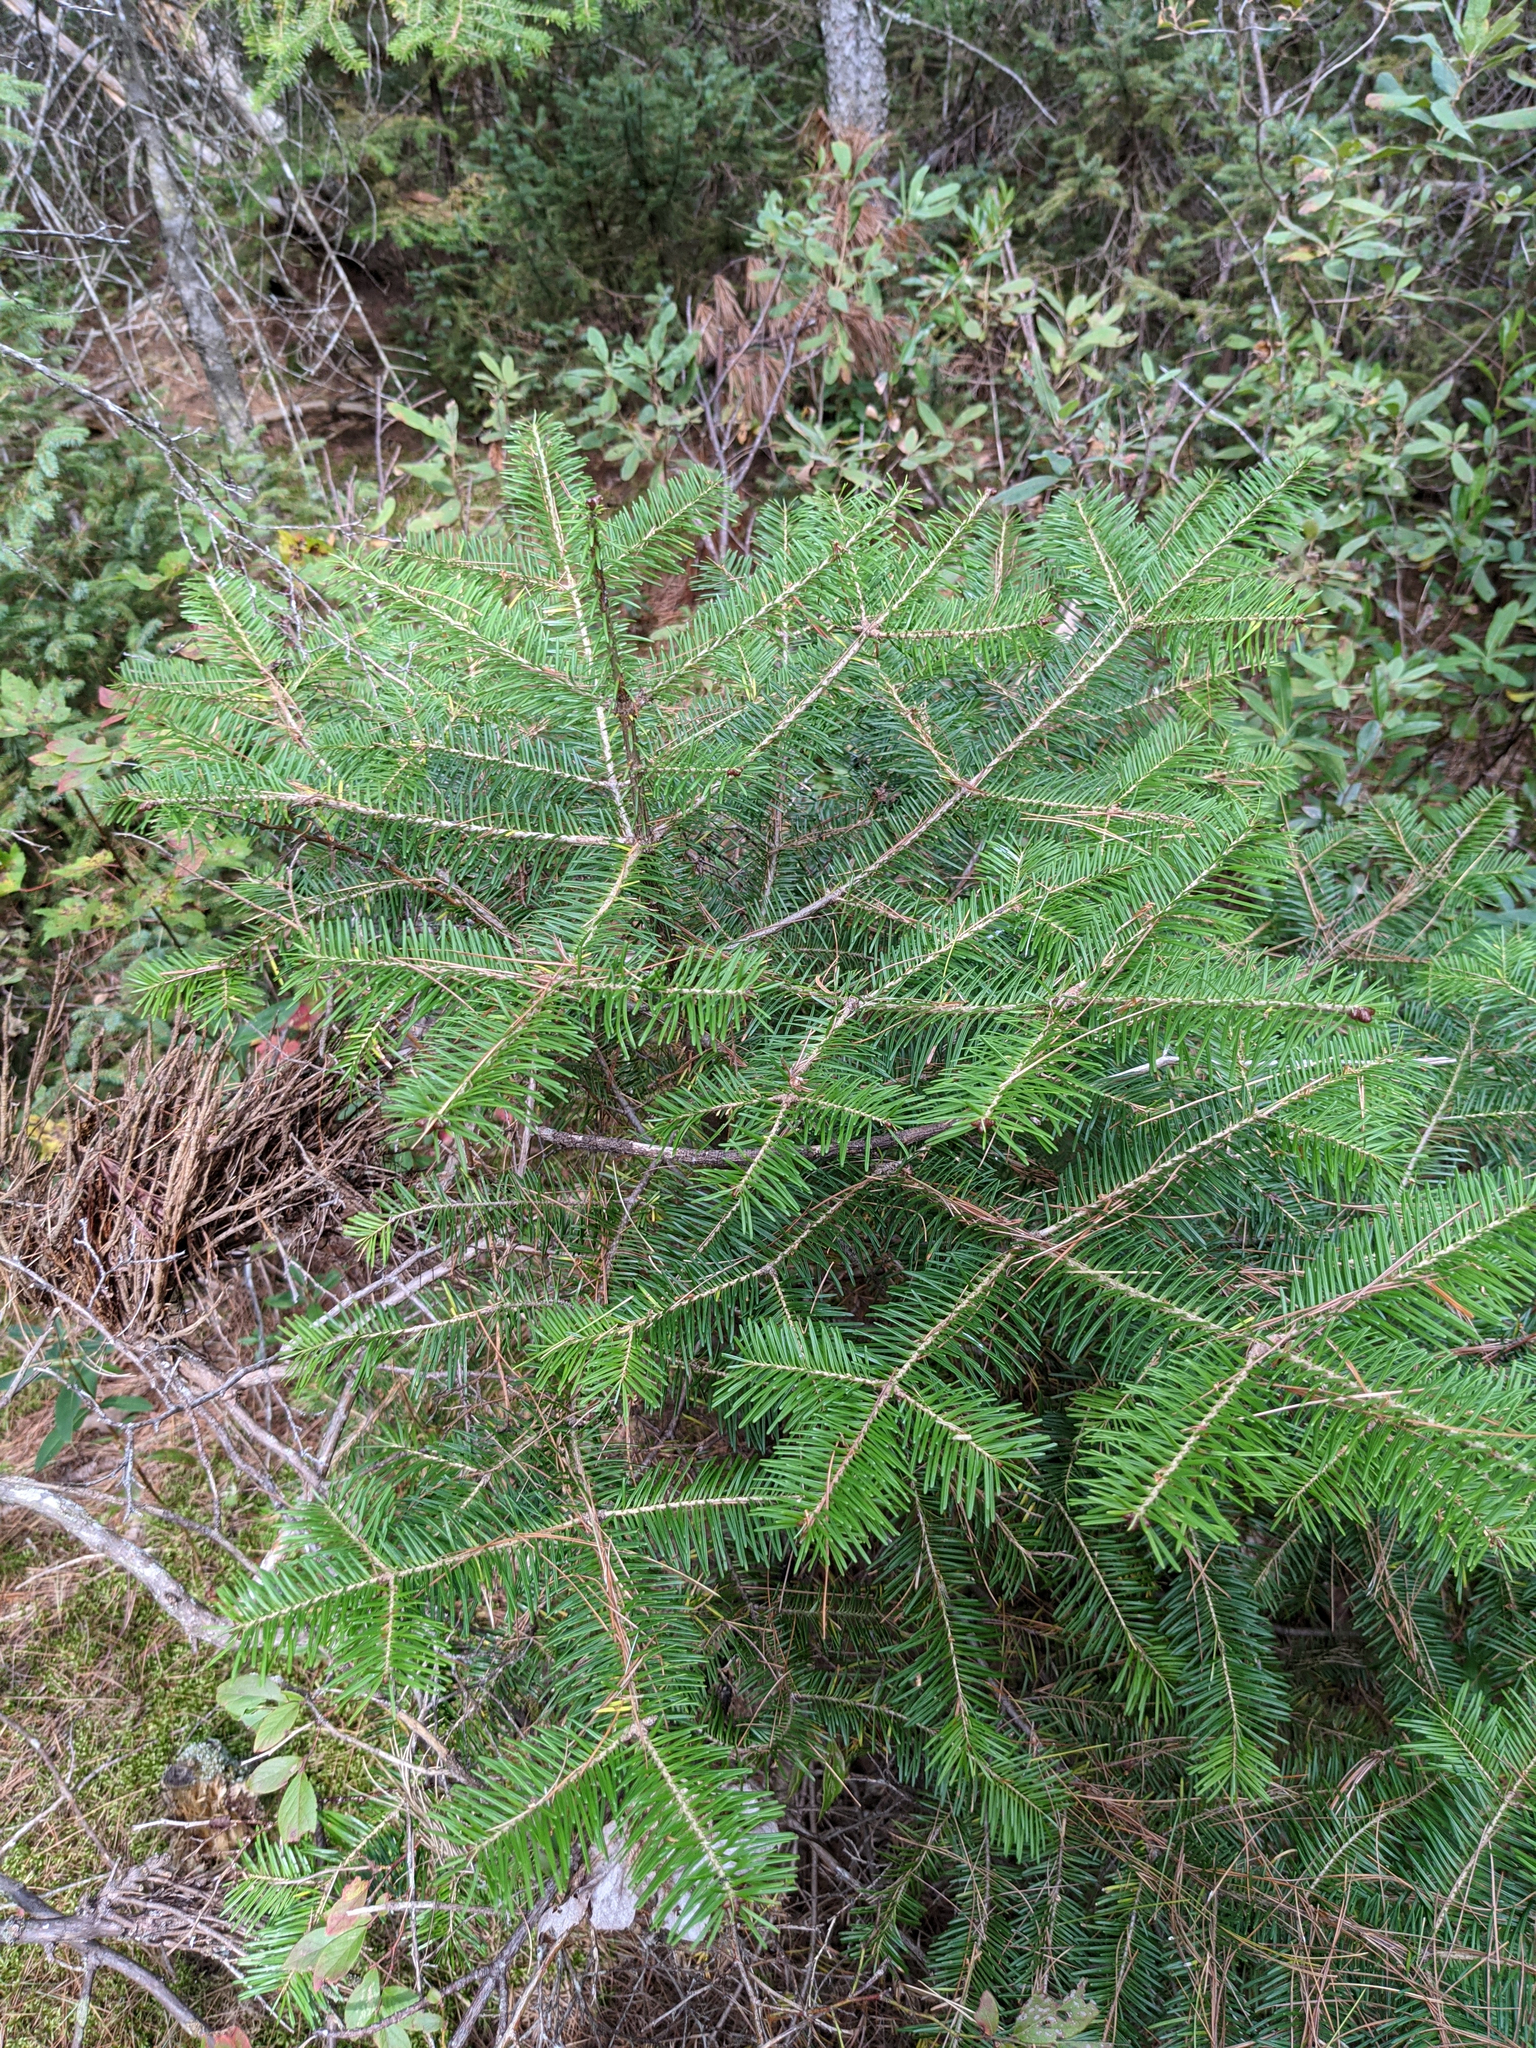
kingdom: Plantae
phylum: Tracheophyta
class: Pinopsida
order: Pinales
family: Pinaceae
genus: Abies
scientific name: Abies balsamea
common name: Balsam fir
